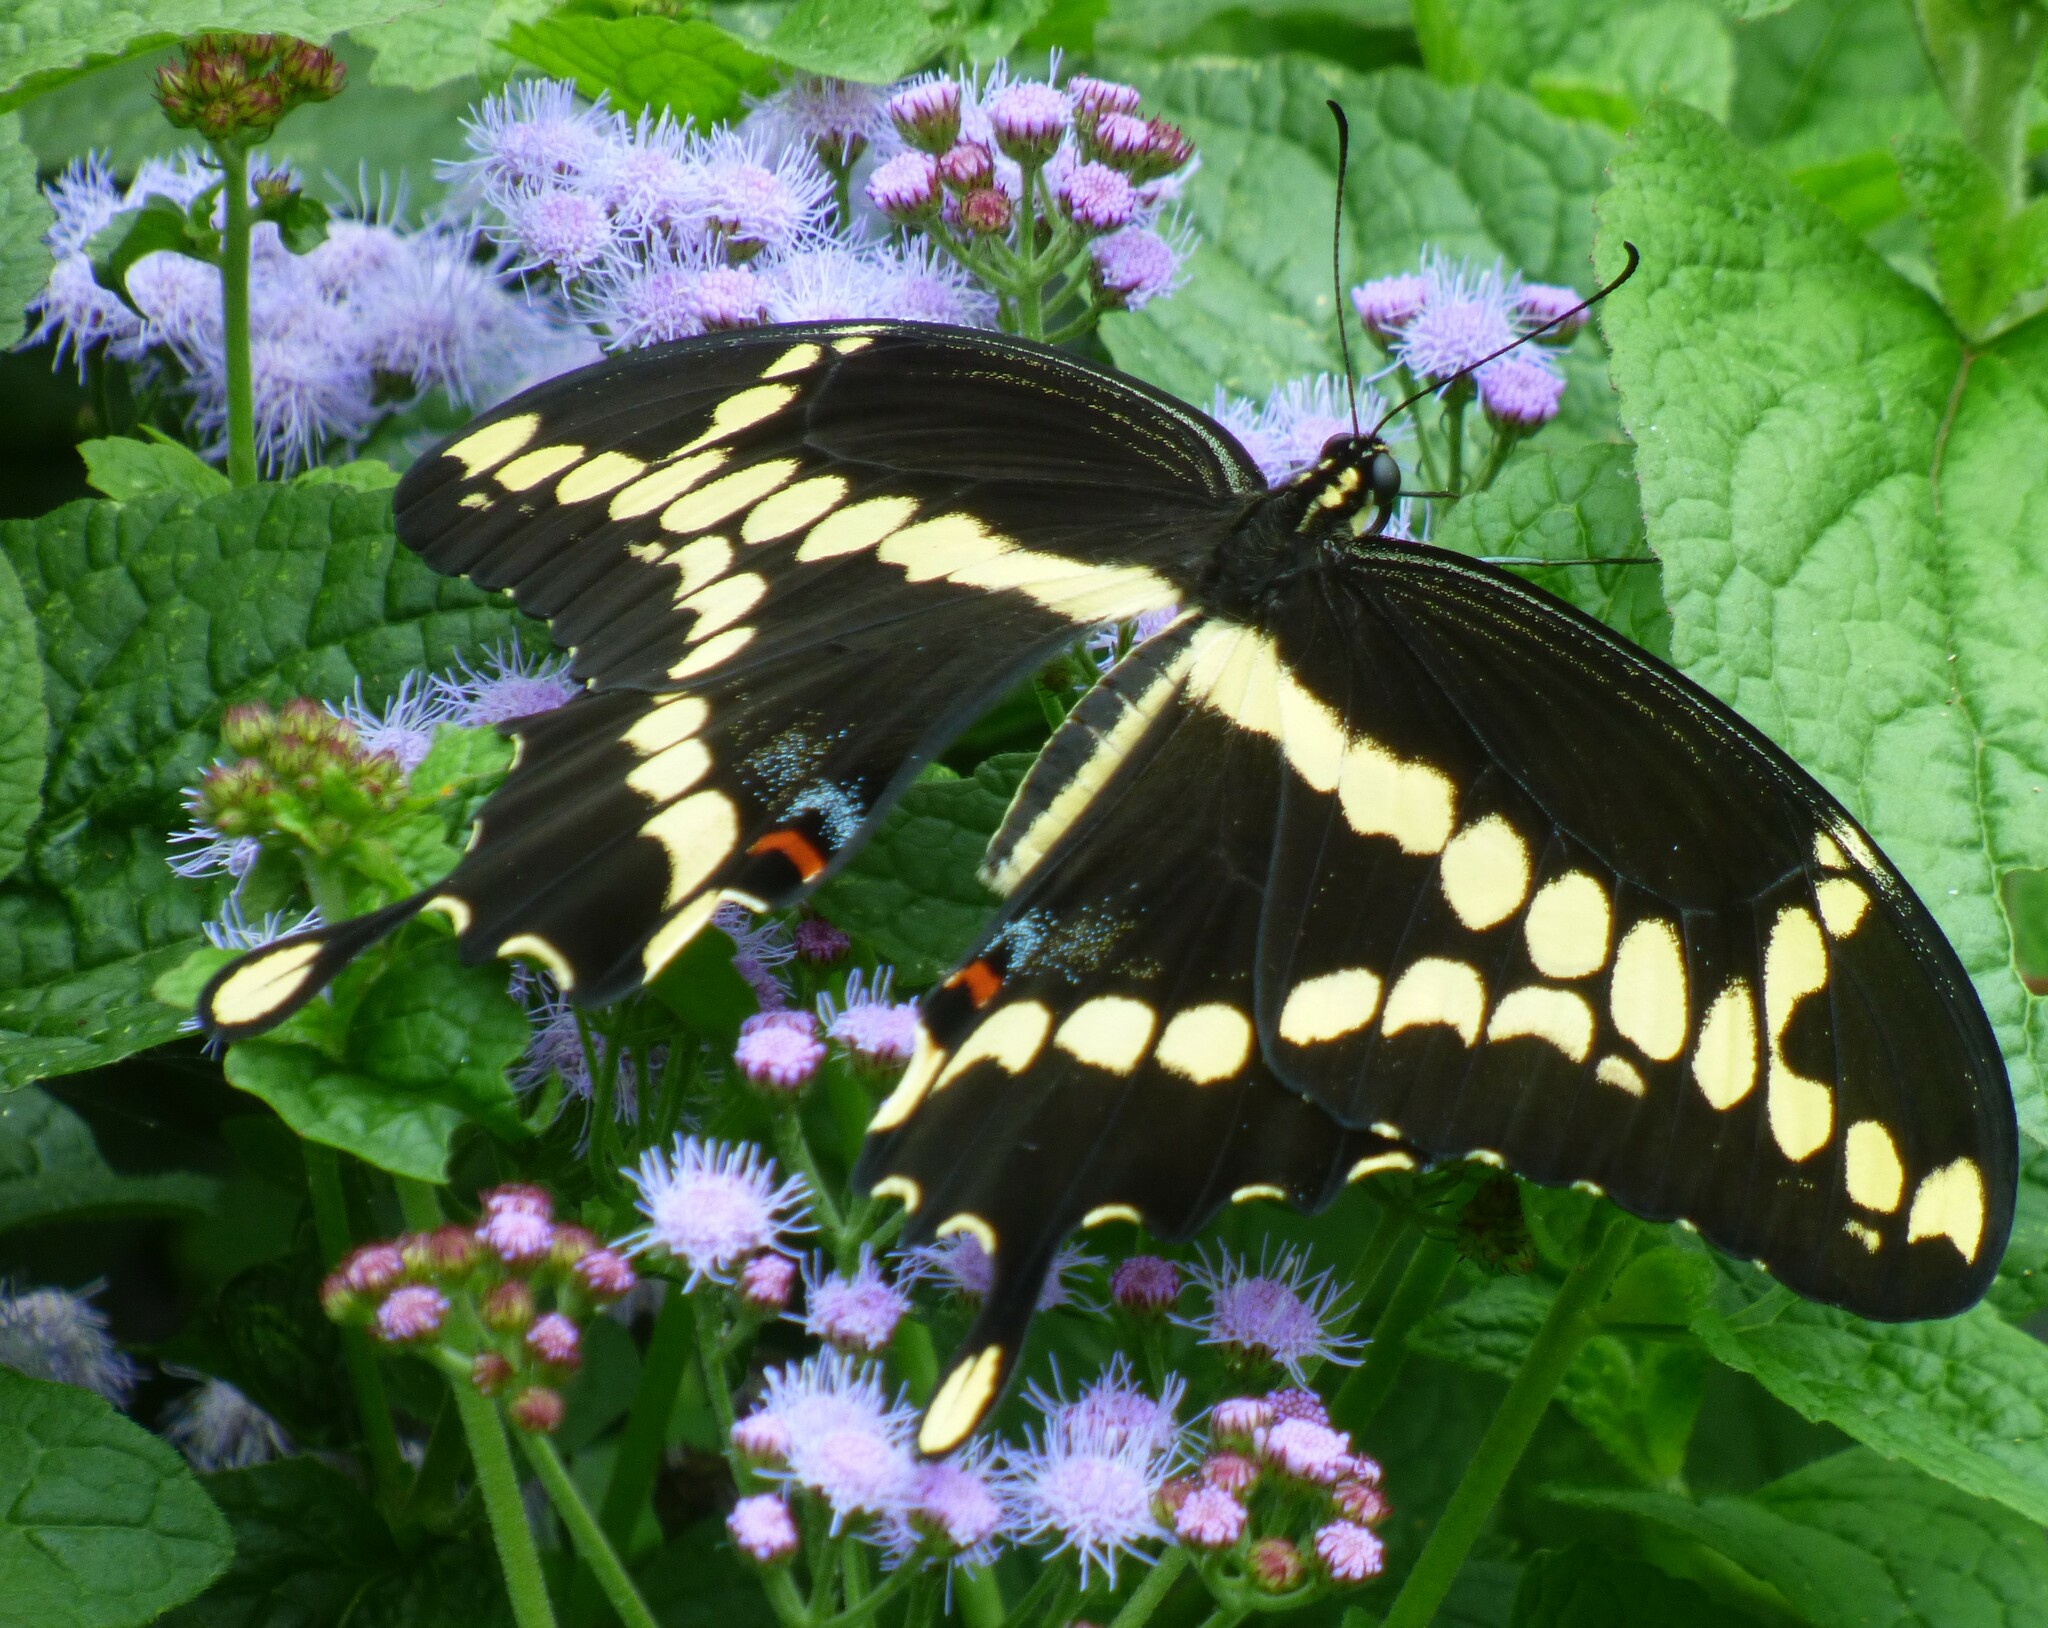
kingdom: Animalia
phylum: Arthropoda
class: Insecta
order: Lepidoptera
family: Papilionidae
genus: Papilio
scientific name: Papilio cresphontes
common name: Giant swallowtail
